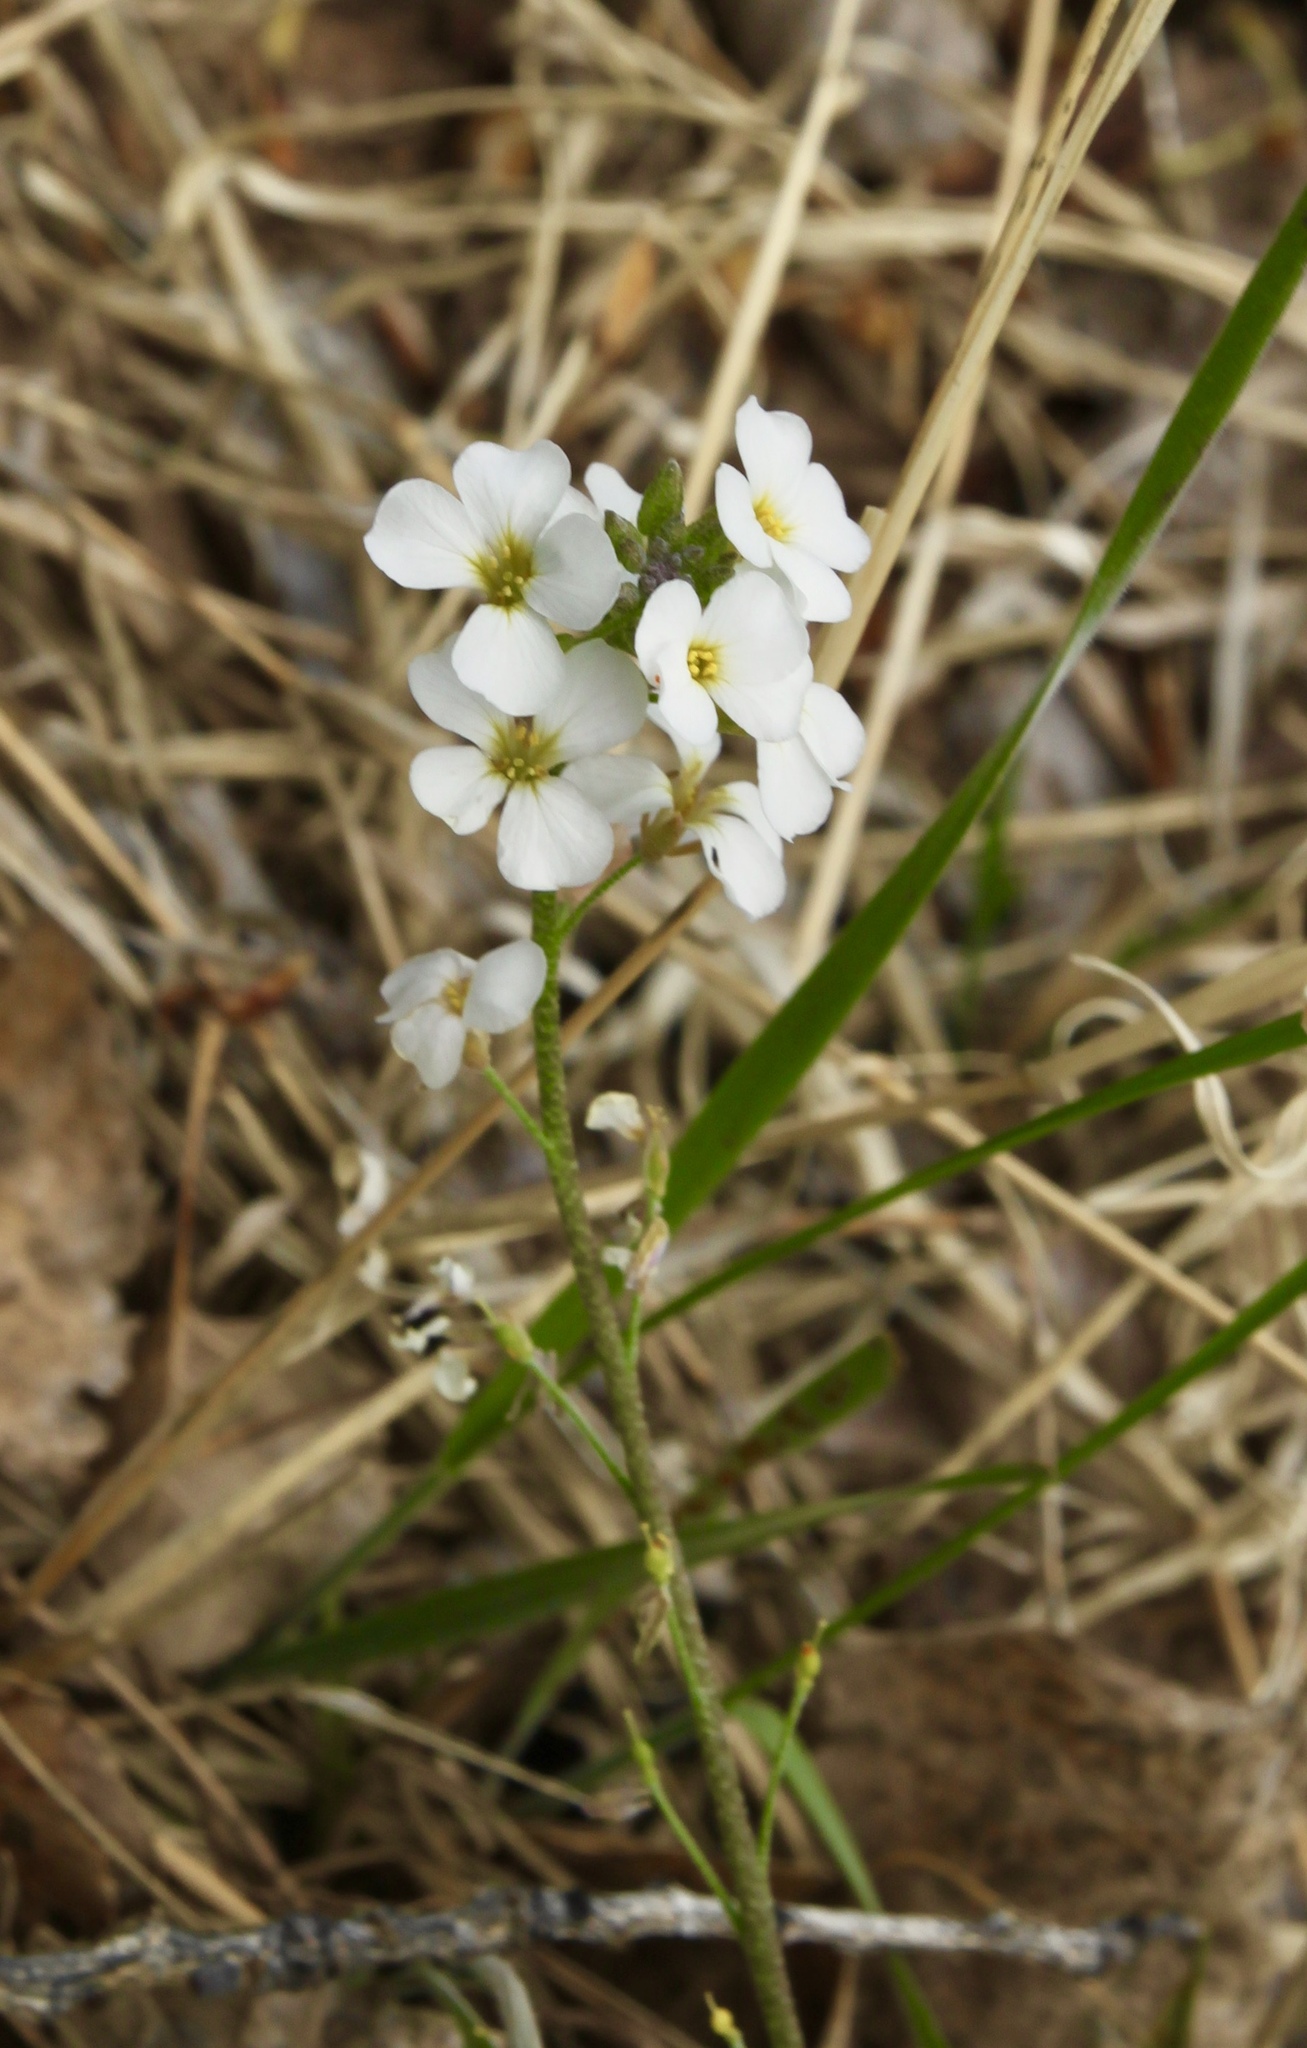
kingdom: Plantae
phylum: Tracheophyta
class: Magnoliopsida
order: Brassicales
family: Brassicaceae
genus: Physaria
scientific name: Physaria purpurea
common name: Rose bladderpod
